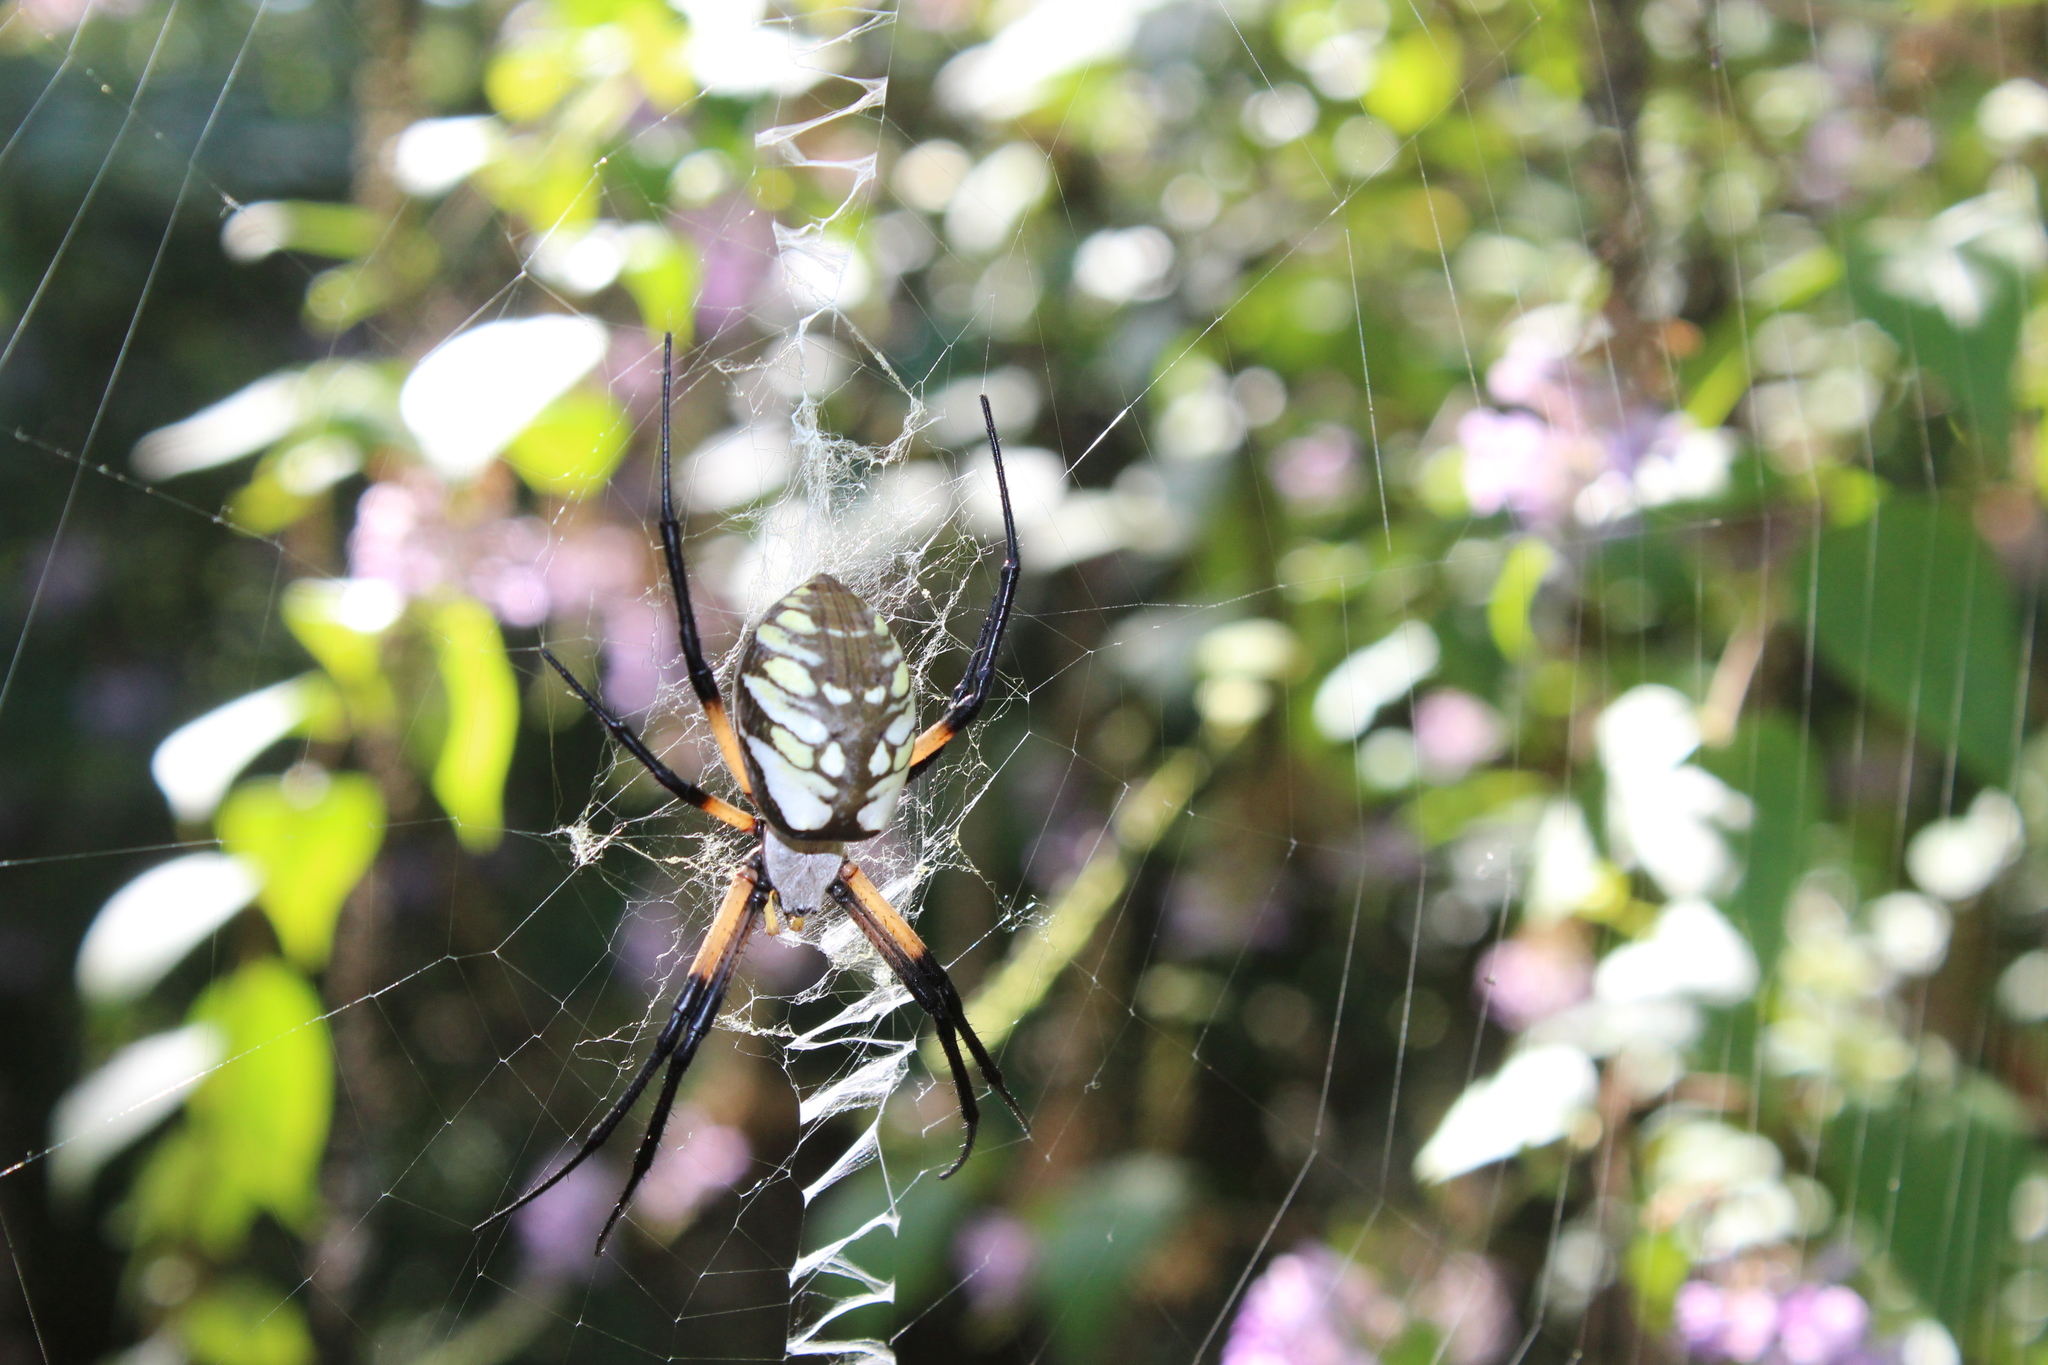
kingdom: Animalia
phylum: Arthropoda
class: Arachnida
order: Araneae
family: Araneidae
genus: Argiope
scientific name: Argiope aurantia
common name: Orb weavers
